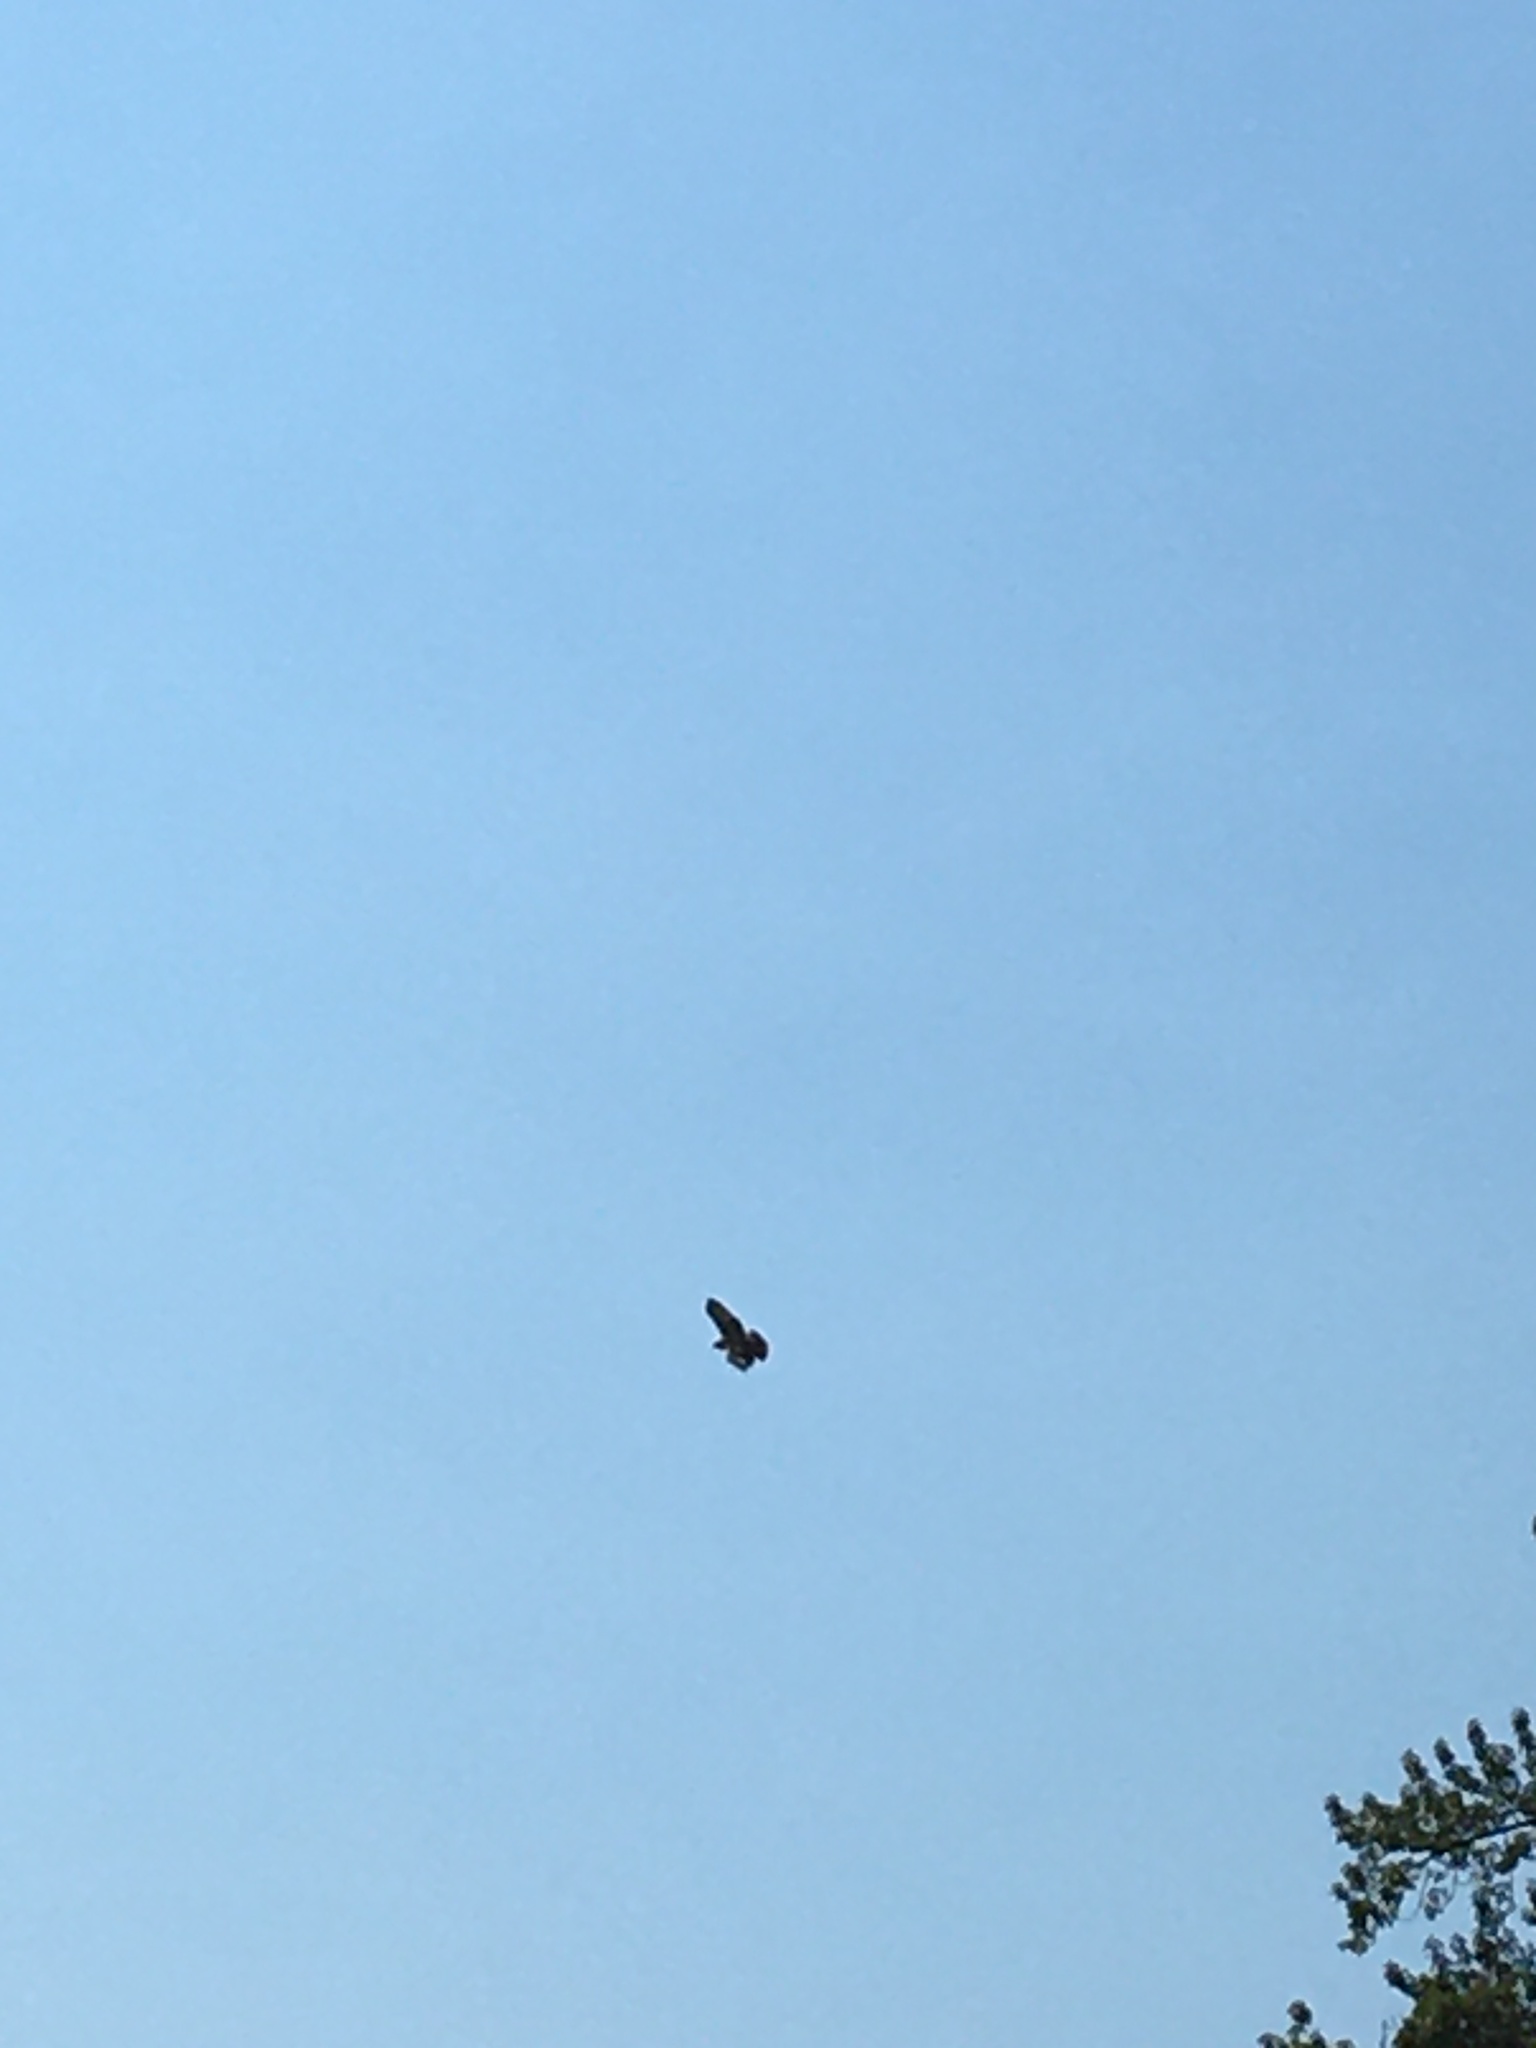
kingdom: Animalia
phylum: Chordata
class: Aves
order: Accipitriformes
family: Accipitridae
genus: Buteo
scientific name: Buteo jamaicensis
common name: Red-tailed hawk
